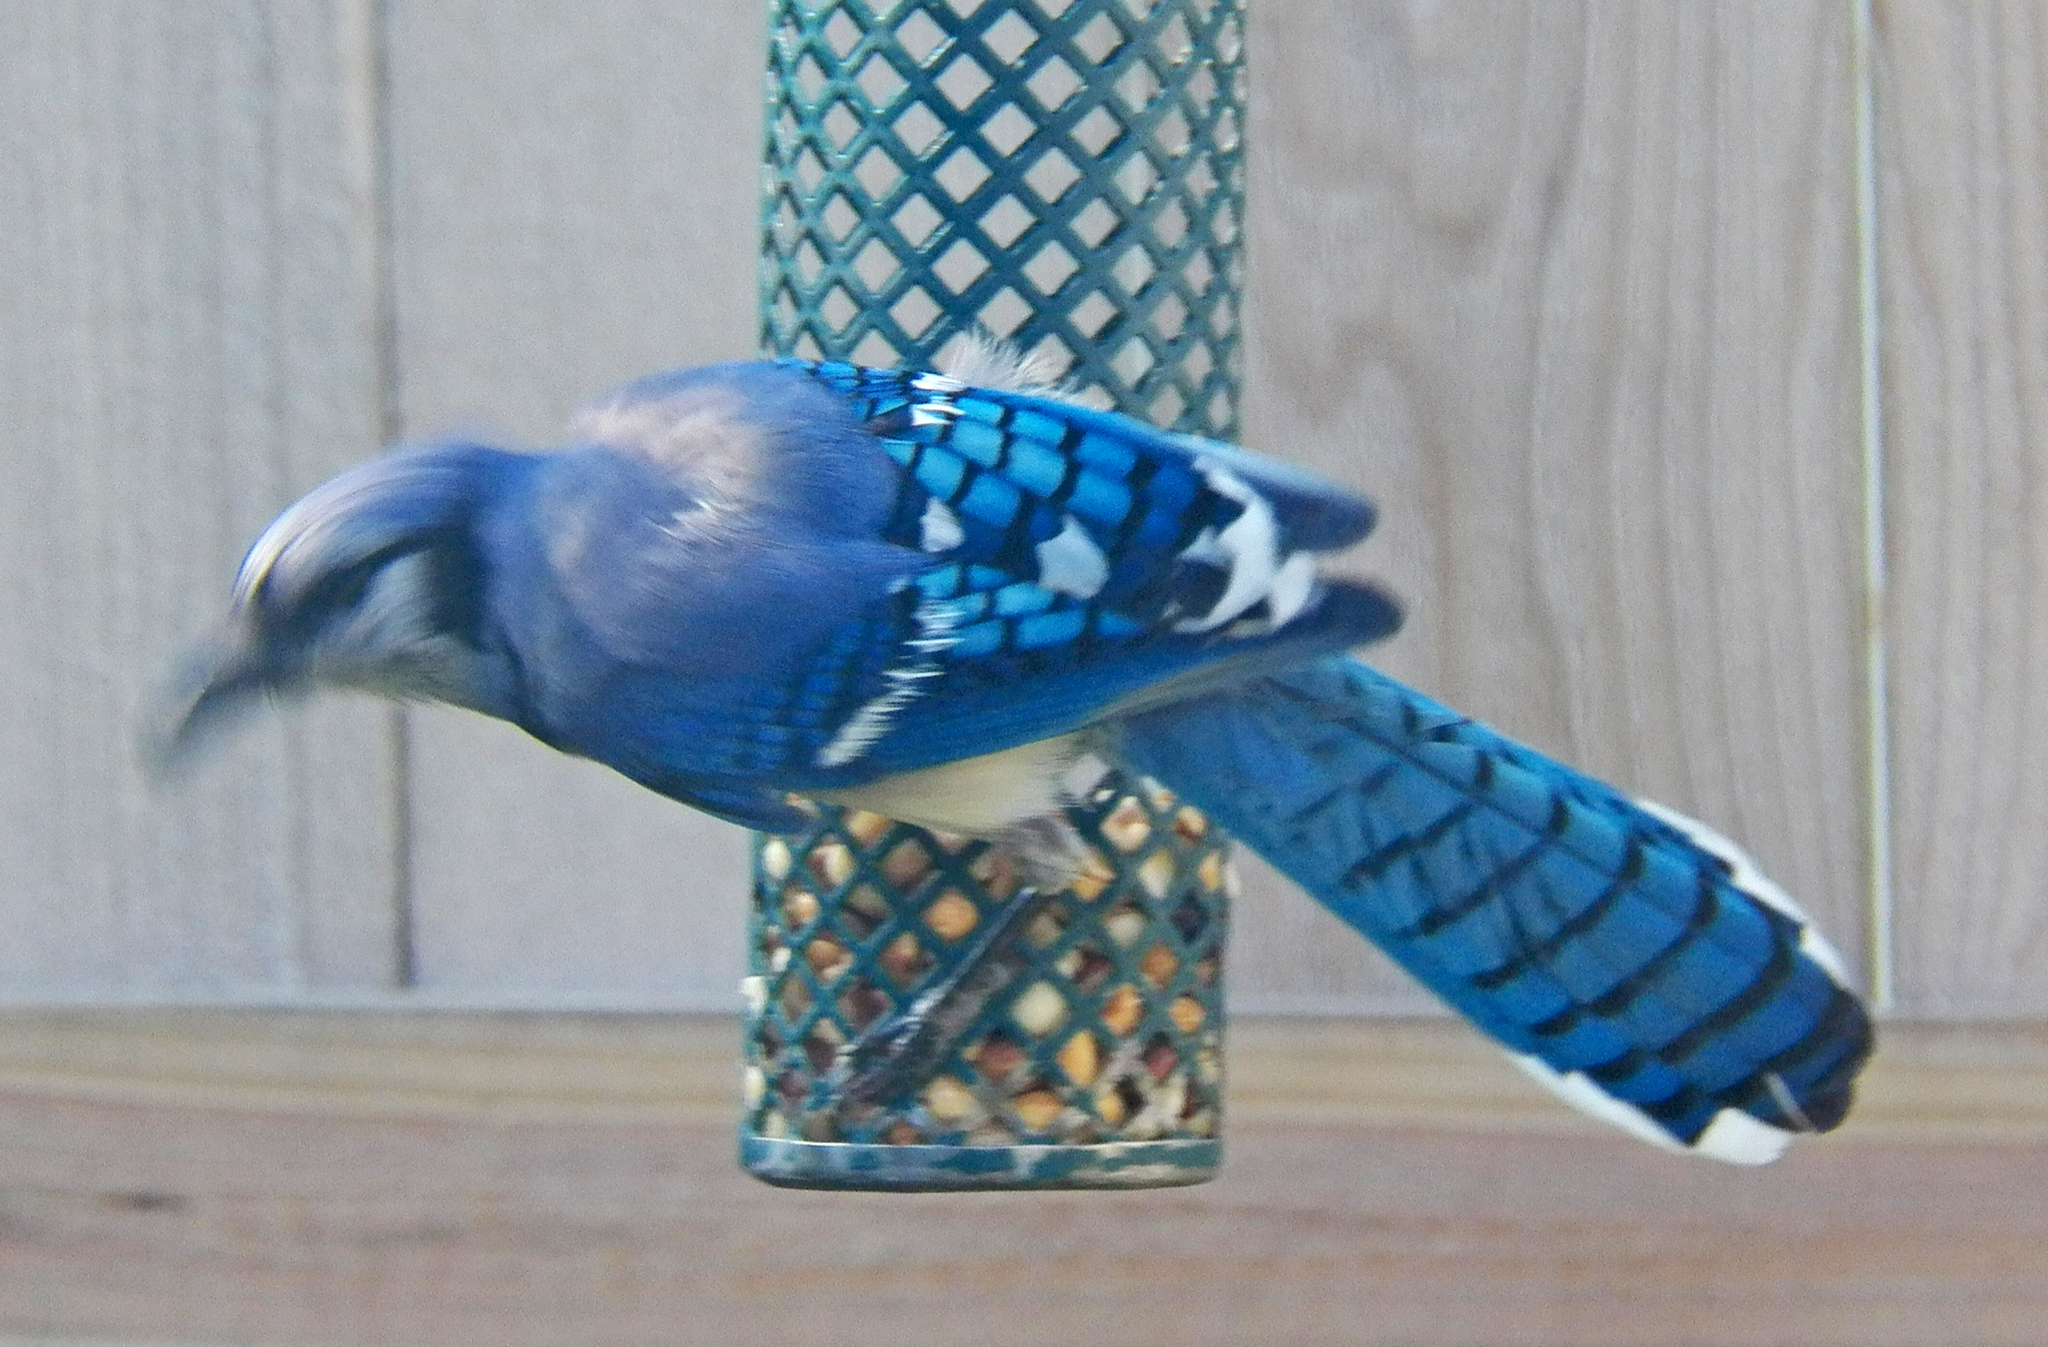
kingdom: Animalia
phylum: Chordata
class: Aves
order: Passeriformes
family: Corvidae
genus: Cyanocitta
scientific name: Cyanocitta cristata
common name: Blue jay
